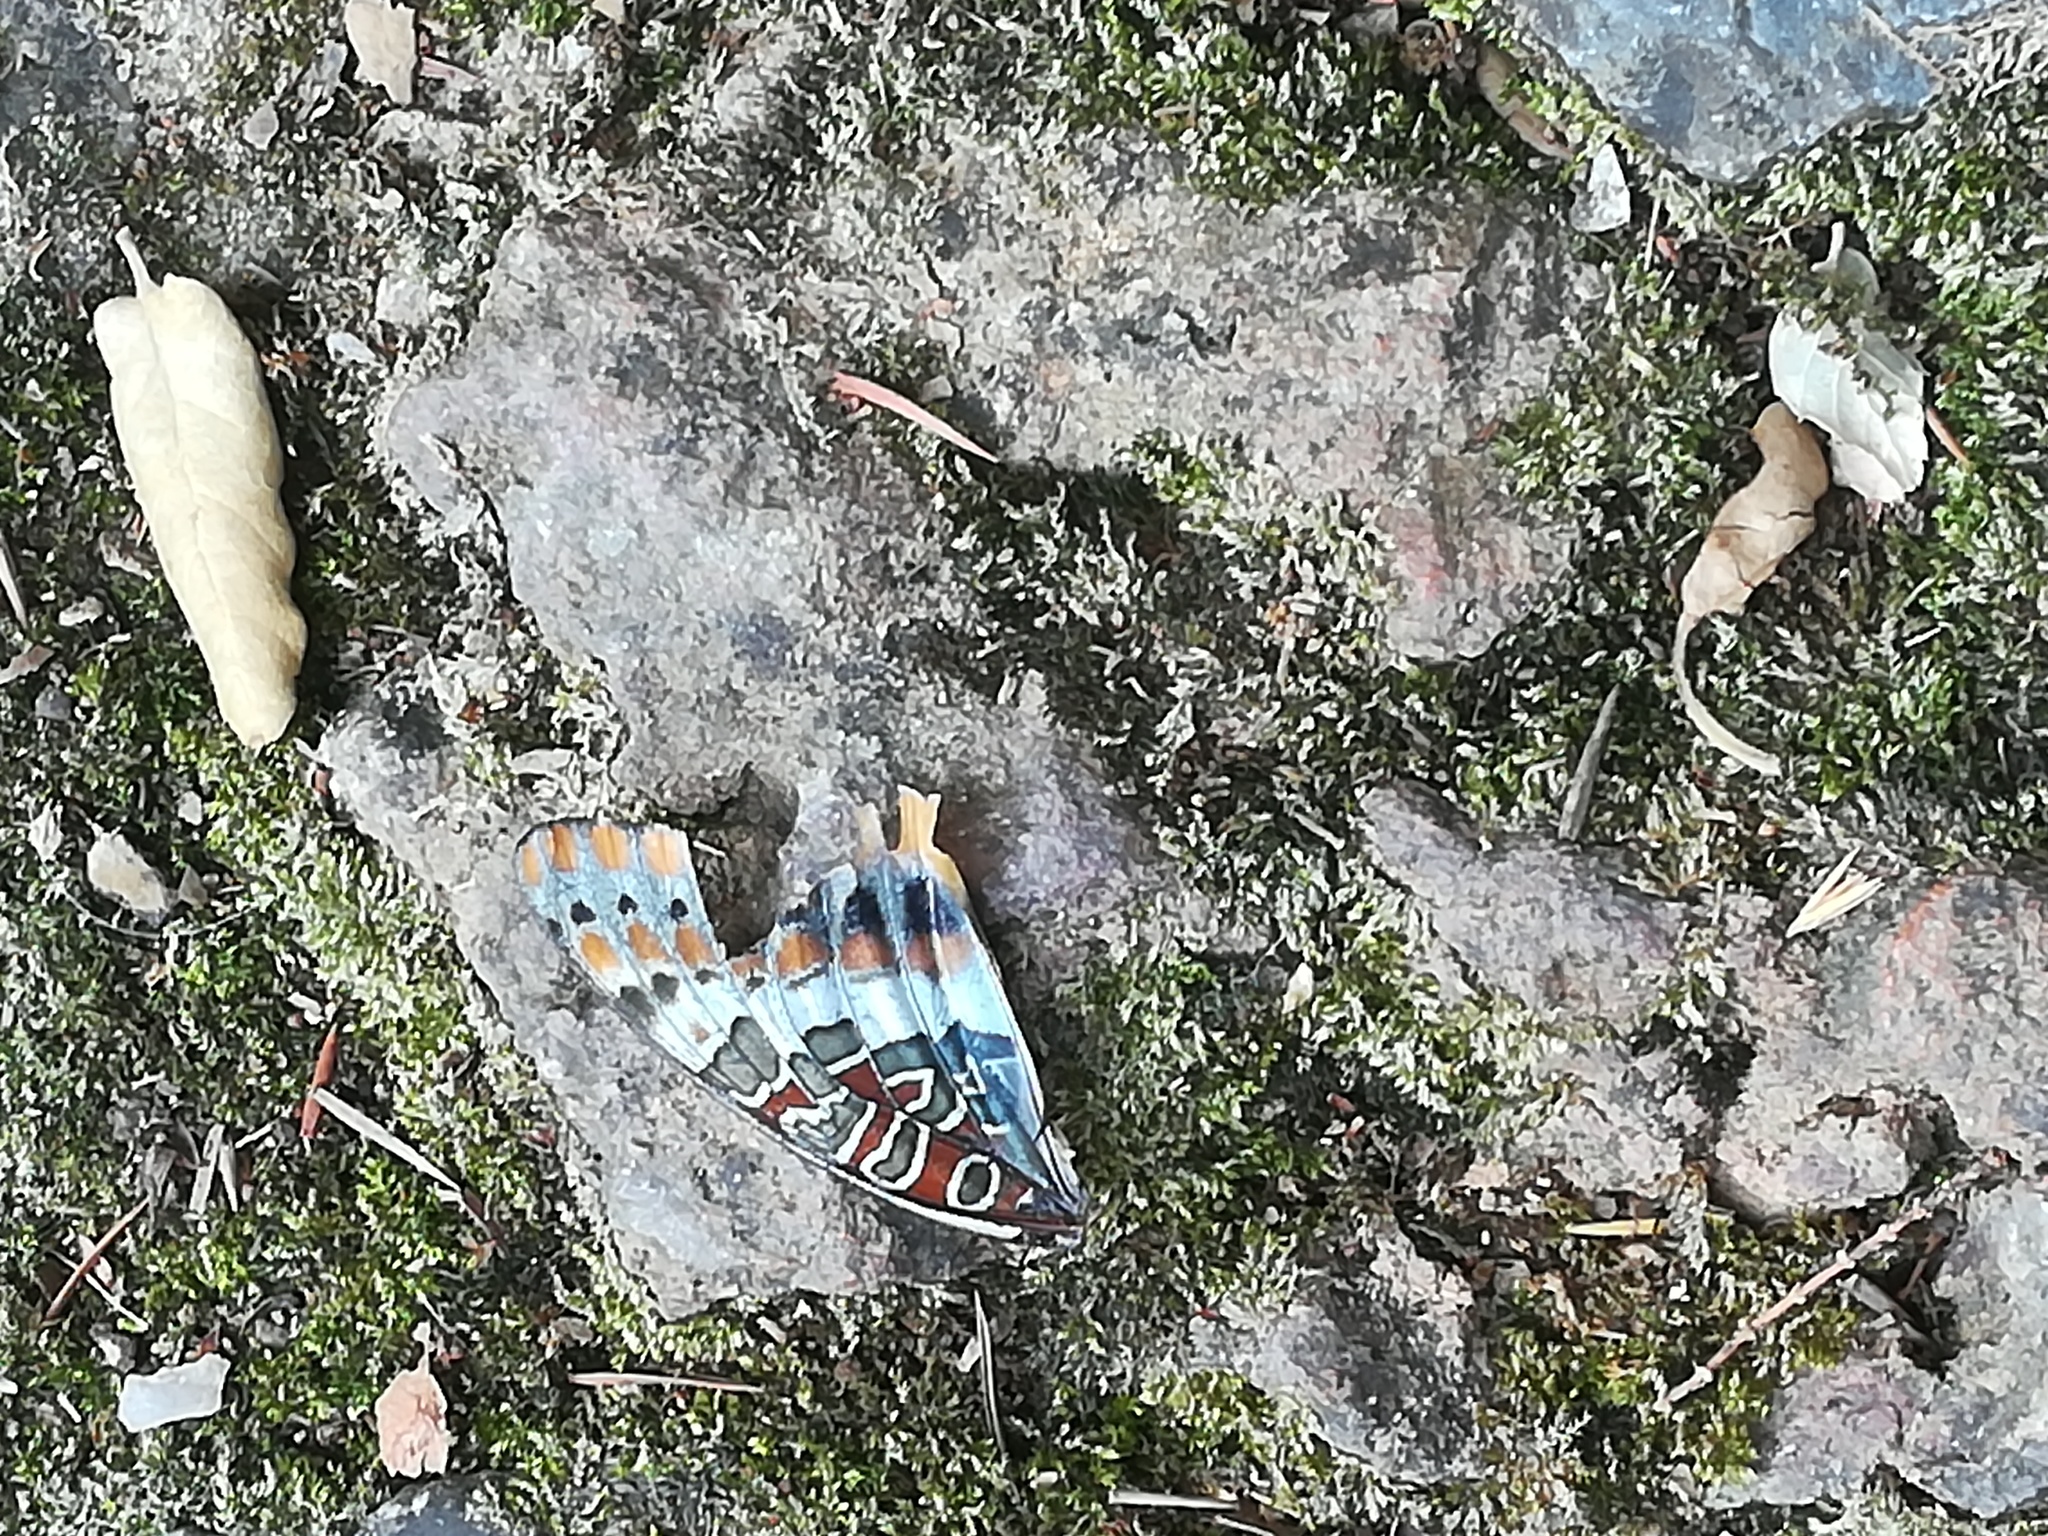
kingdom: Animalia
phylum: Arthropoda
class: Insecta
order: Lepidoptera
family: Nymphalidae
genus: Charaxes
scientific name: Charaxes jasius
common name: Two tailed pasha
